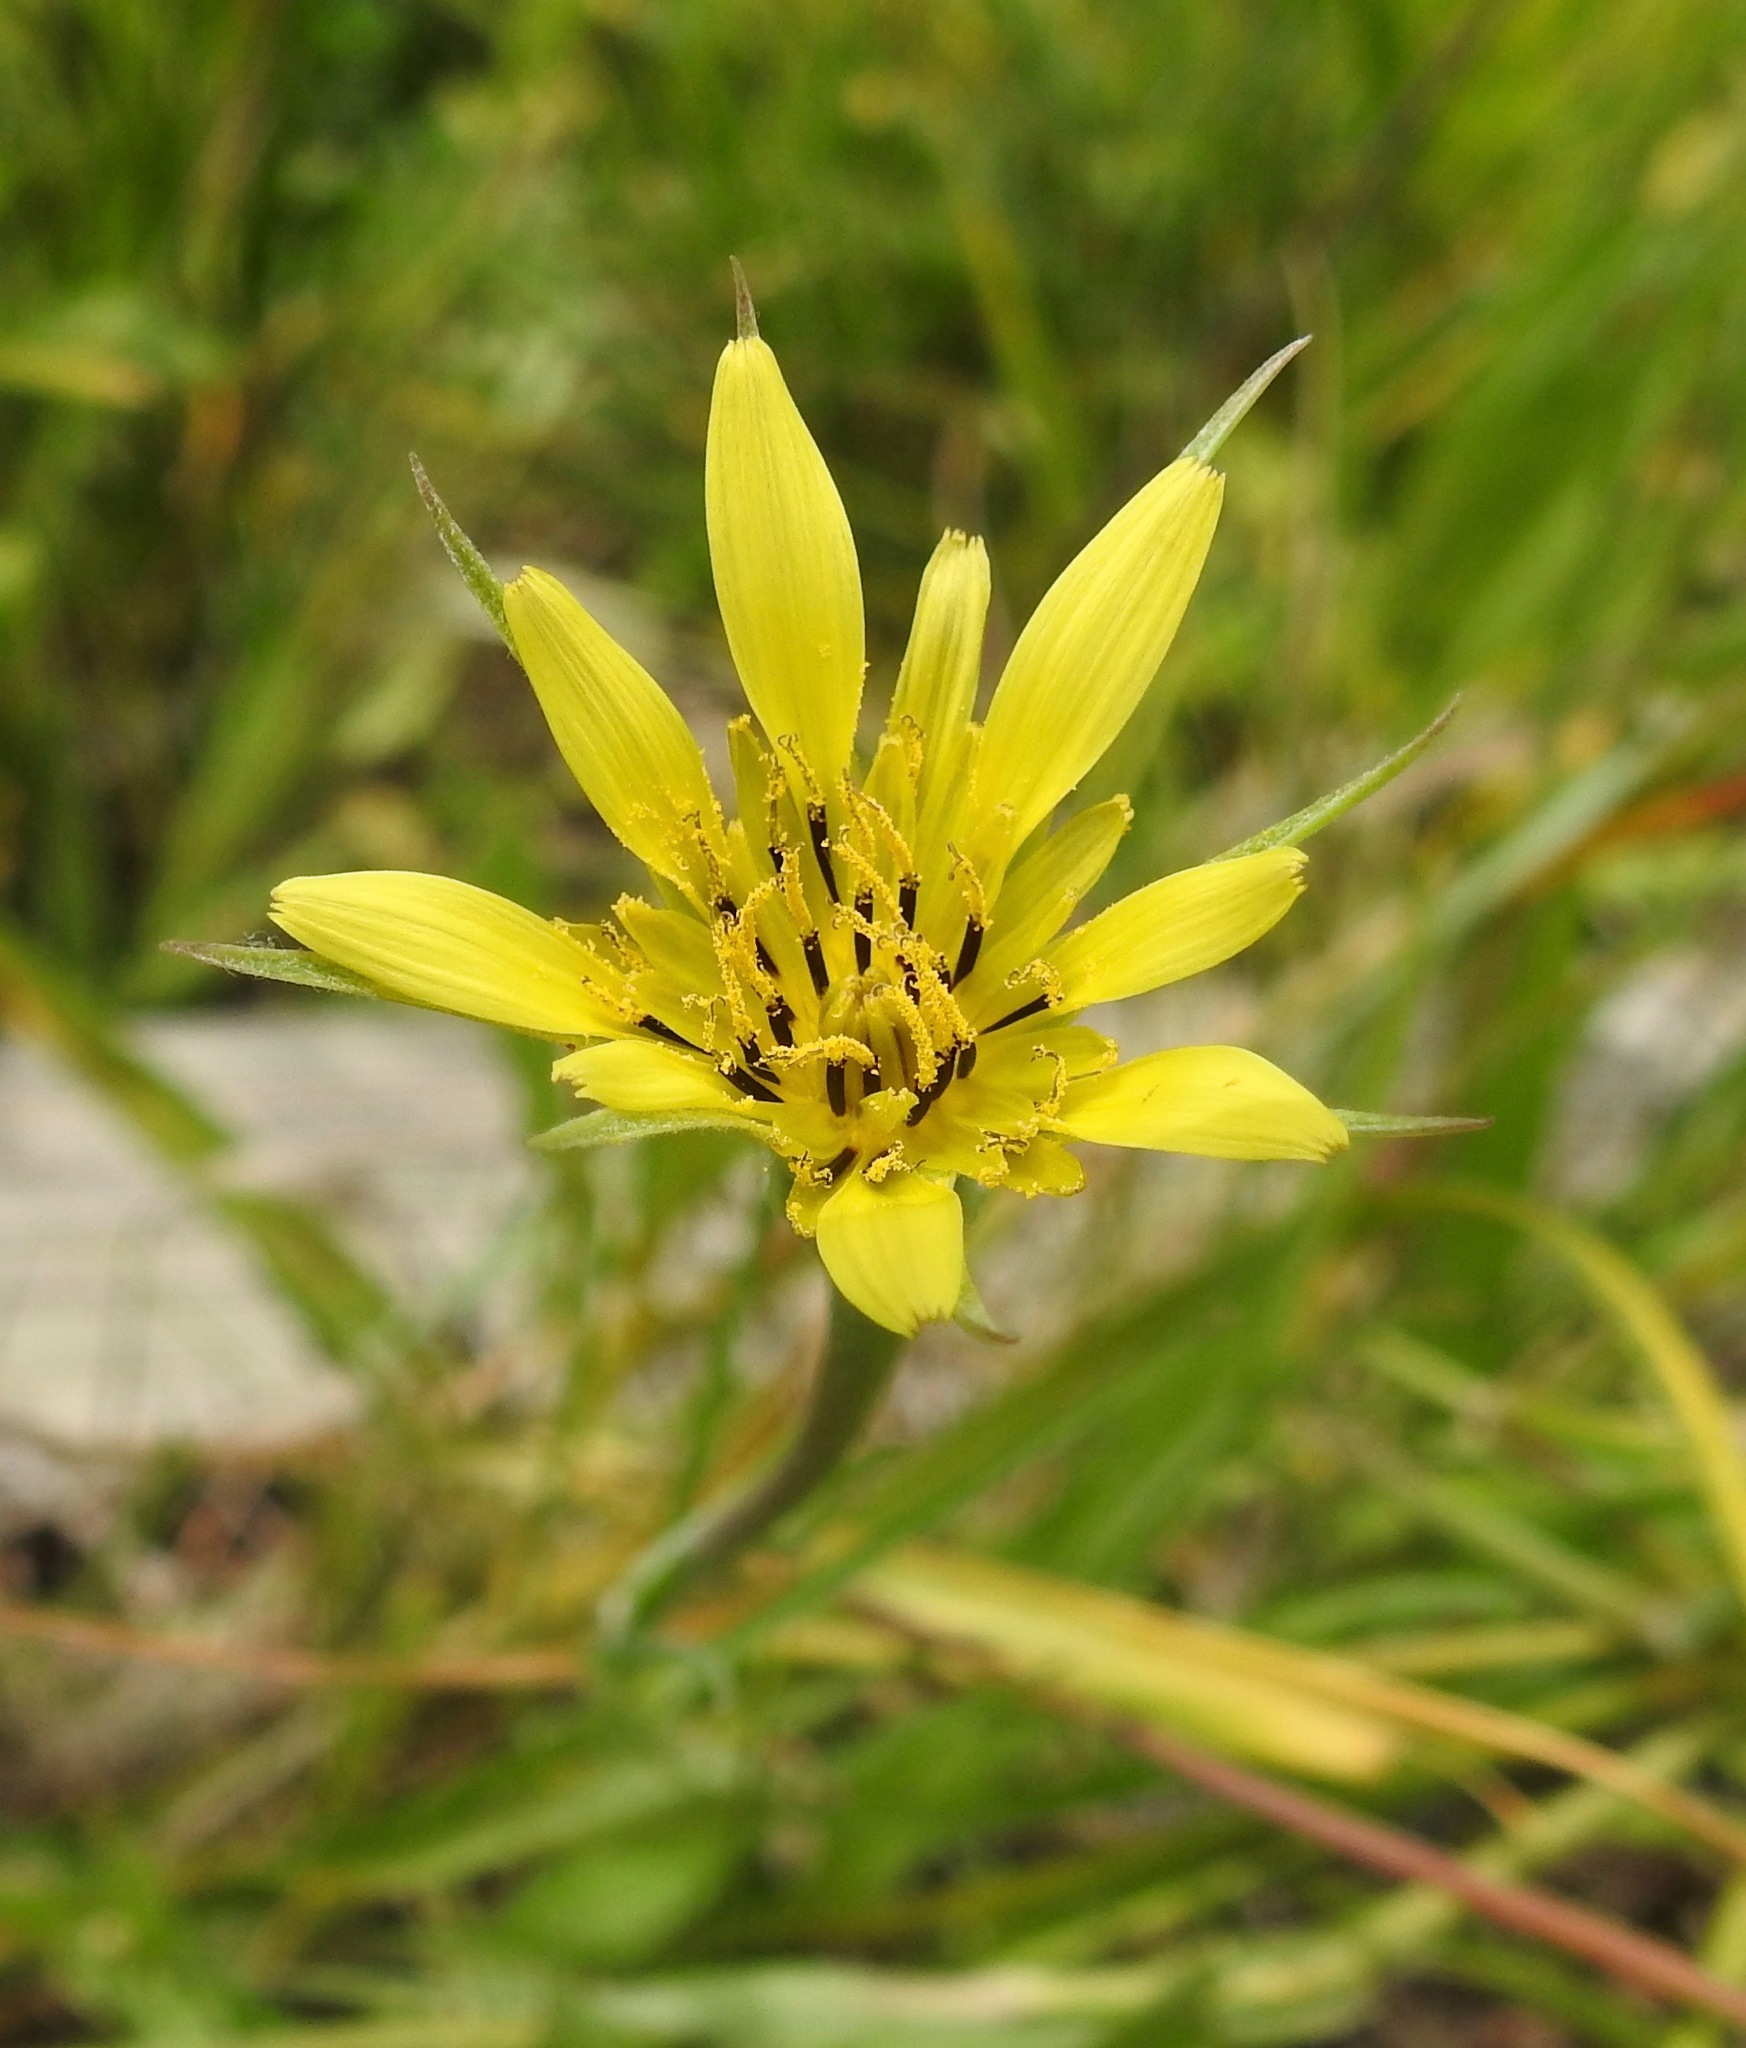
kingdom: Plantae
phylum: Tracheophyta
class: Magnoliopsida
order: Asterales
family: Asteraceae
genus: Tragopogon
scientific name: Tragopogon dubius
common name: Yellow salsify
